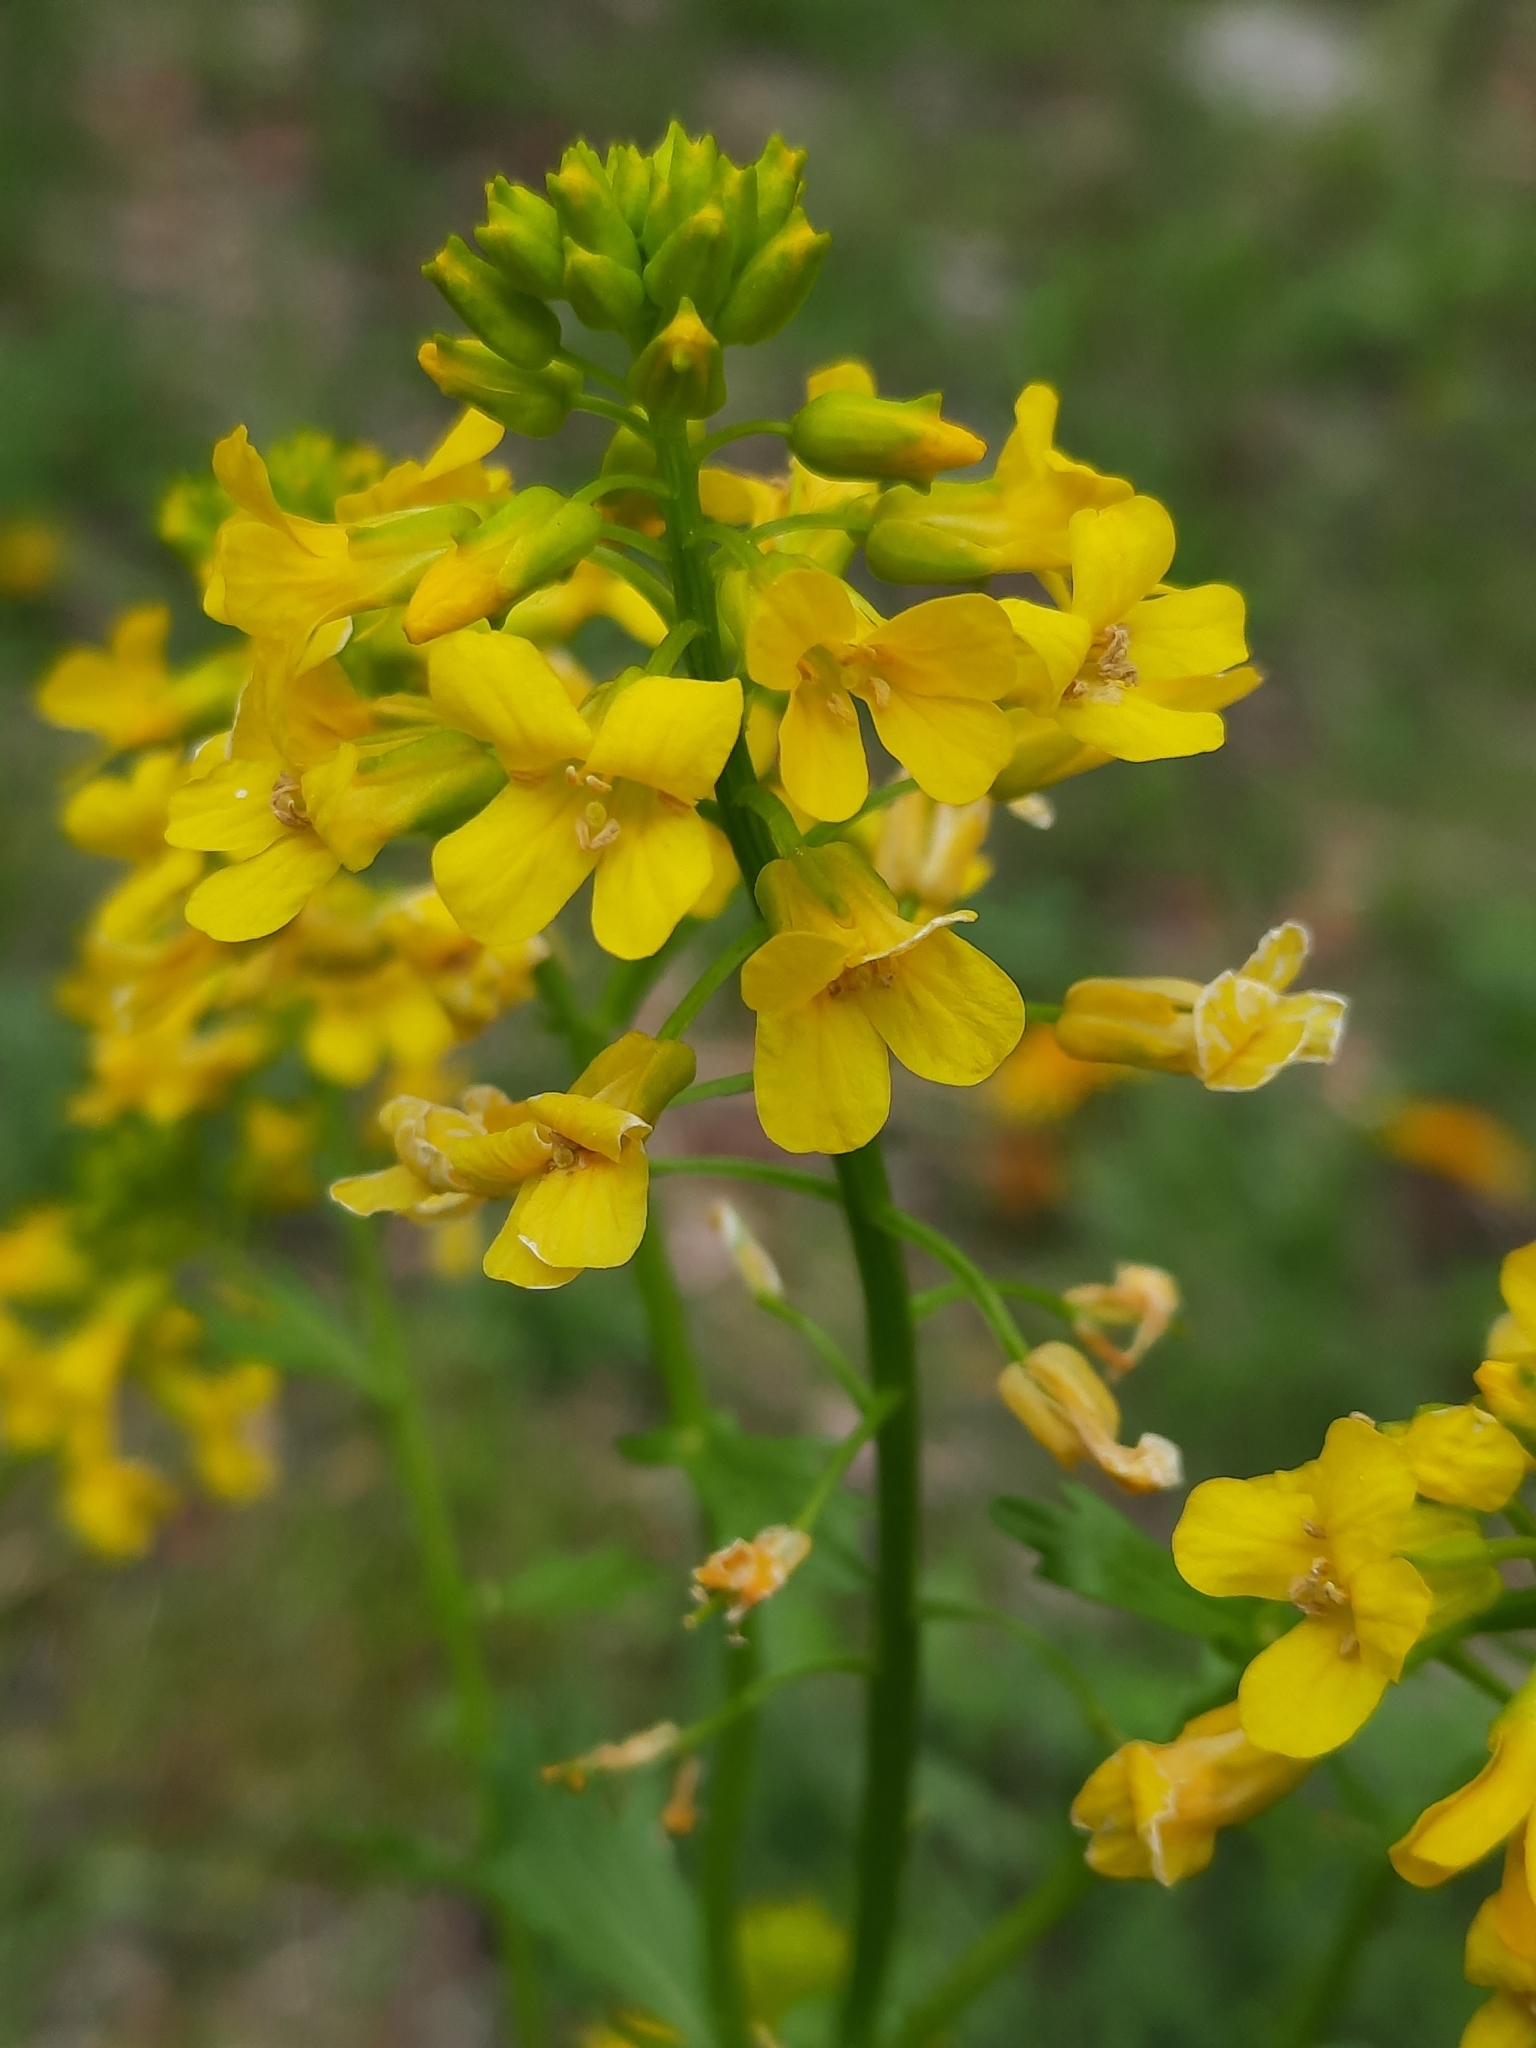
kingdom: Plantae
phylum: Tracheophyta
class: Magnoliopsida
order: Brassicales
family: Brassicaceae
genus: Barbarea
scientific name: Barbarea vulgaris
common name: Cressy-greens
